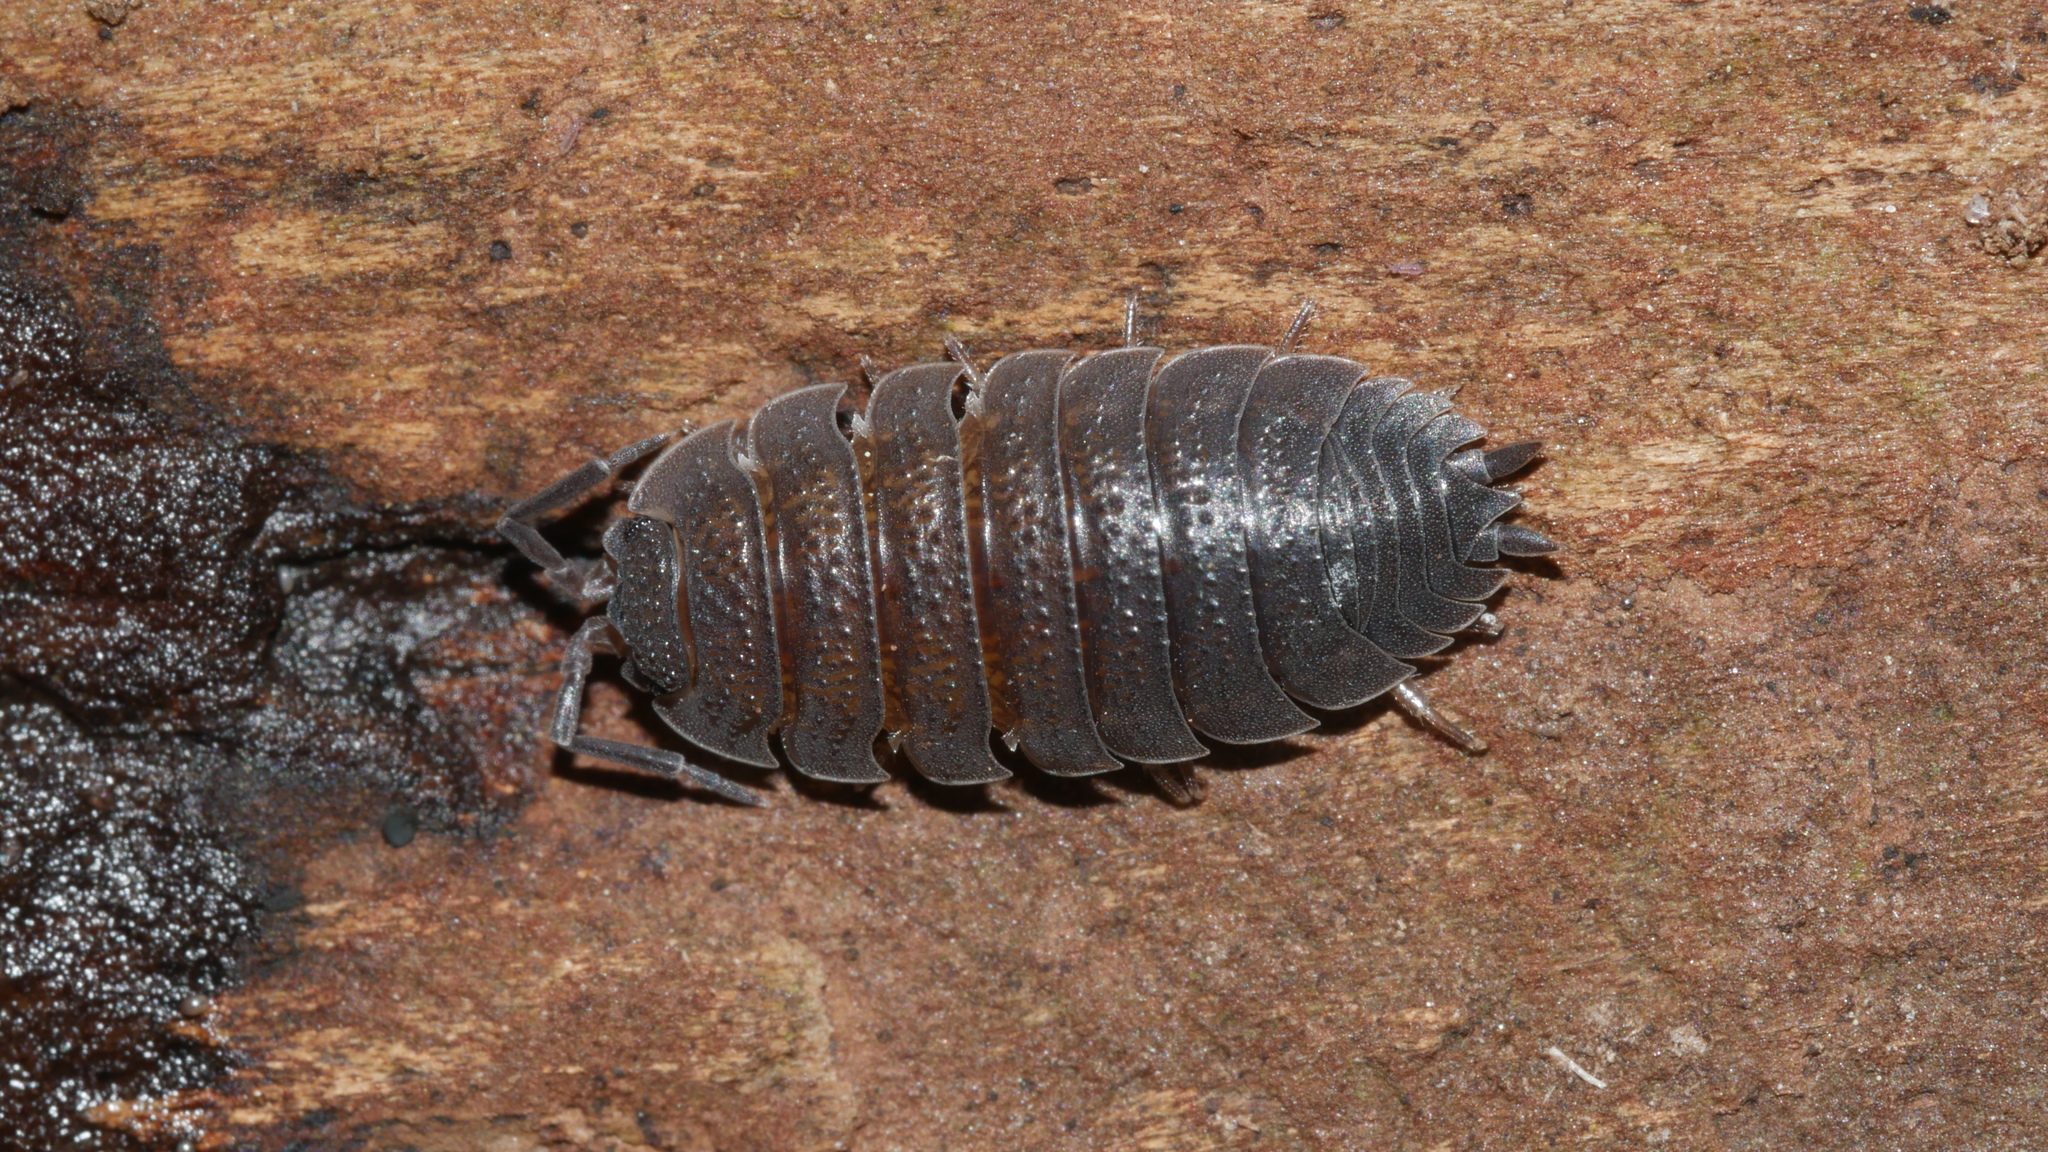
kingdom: Animalia
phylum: Arthropoda
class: Malacostraca
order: Isopoda
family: Porcellionidae
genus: Porcellio
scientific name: Porcellio scaber
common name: Common rough woodlouse
